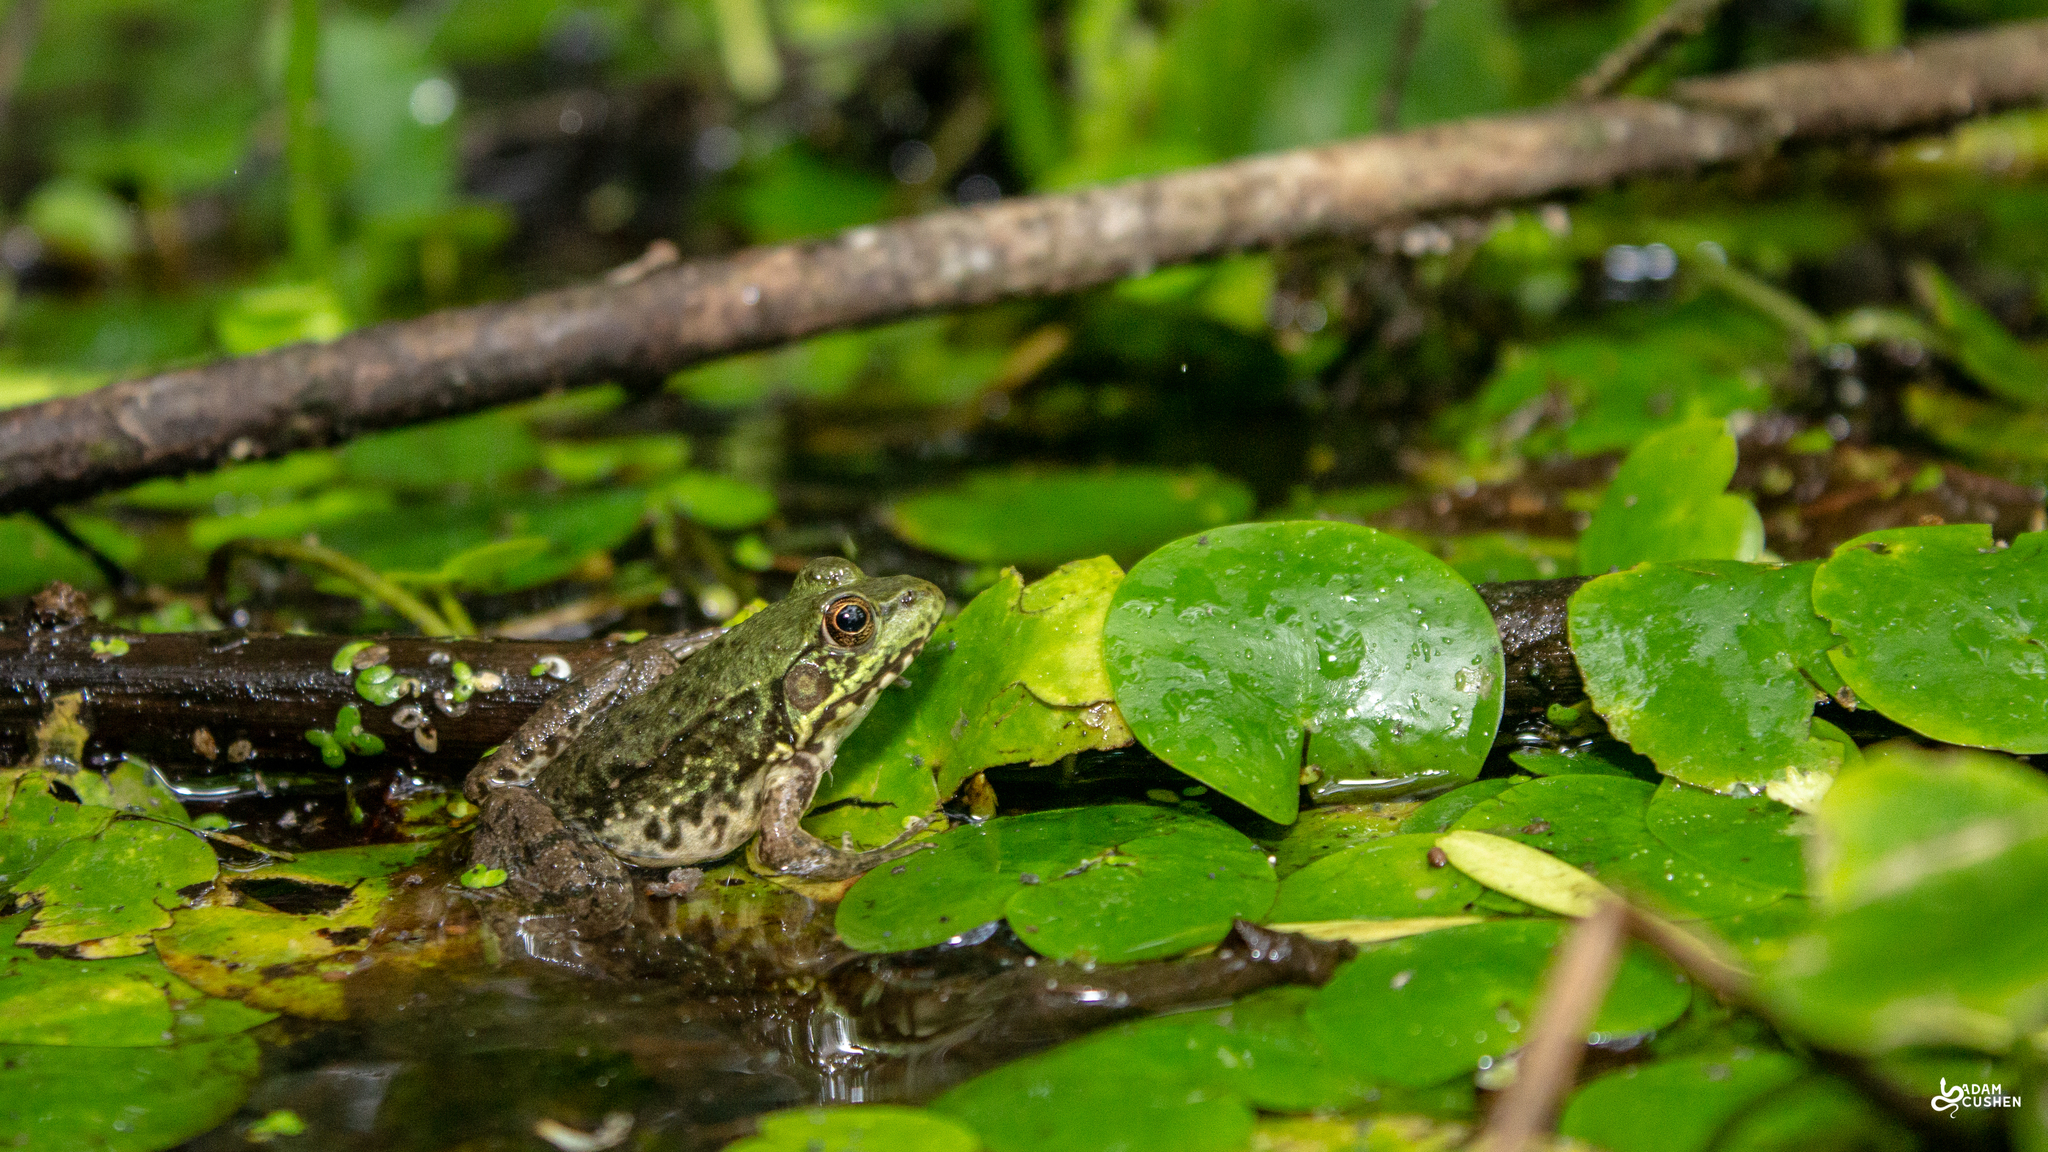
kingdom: Animalia
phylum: Chordata
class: Amphibia
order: Anura
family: Ranidae
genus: Lithobates
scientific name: Lithobates clamitans
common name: Green frog
